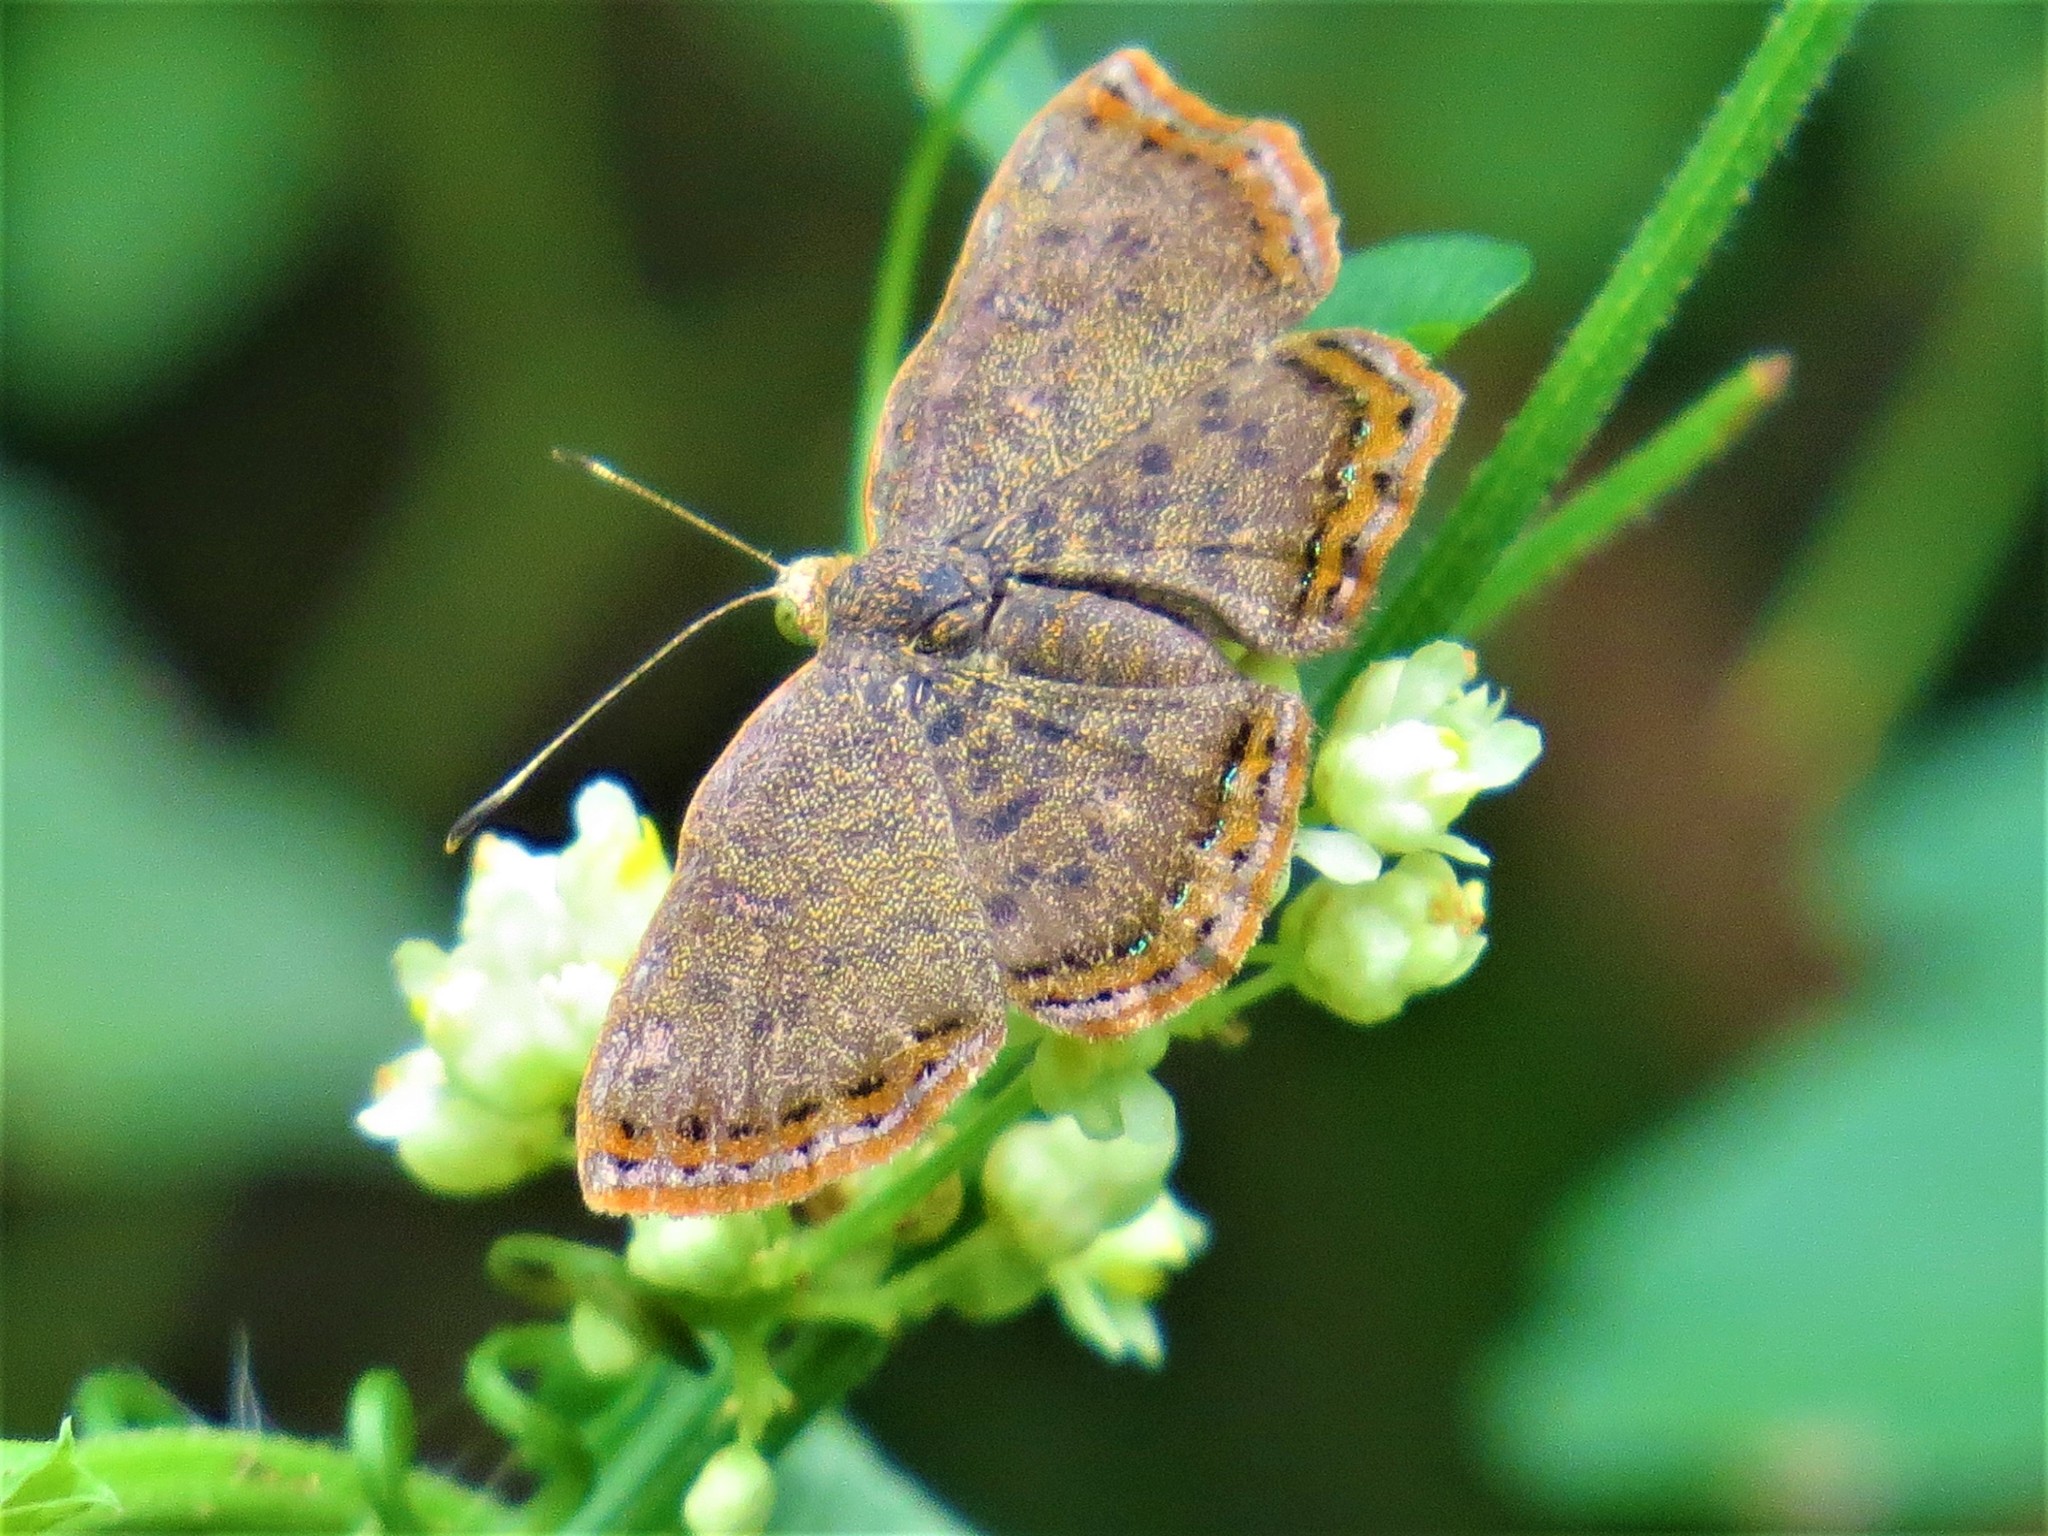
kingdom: Animalia
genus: Caria
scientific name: Caria ino
